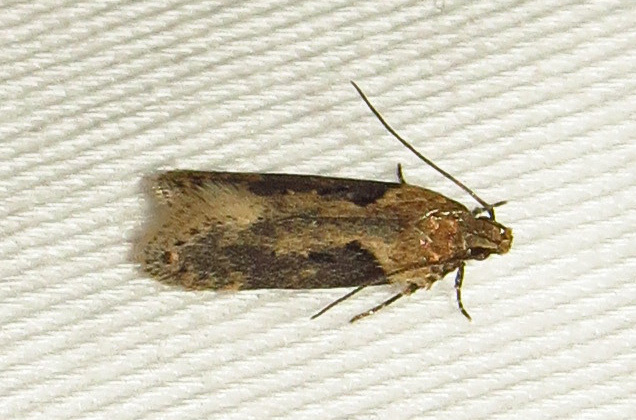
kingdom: Animalia
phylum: Arthropoda
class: Insecta
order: Lepidoptera
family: Gelechiidae
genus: Chionodes
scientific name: Chionodes mediofuscella
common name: Black-smudged chionodes moth
